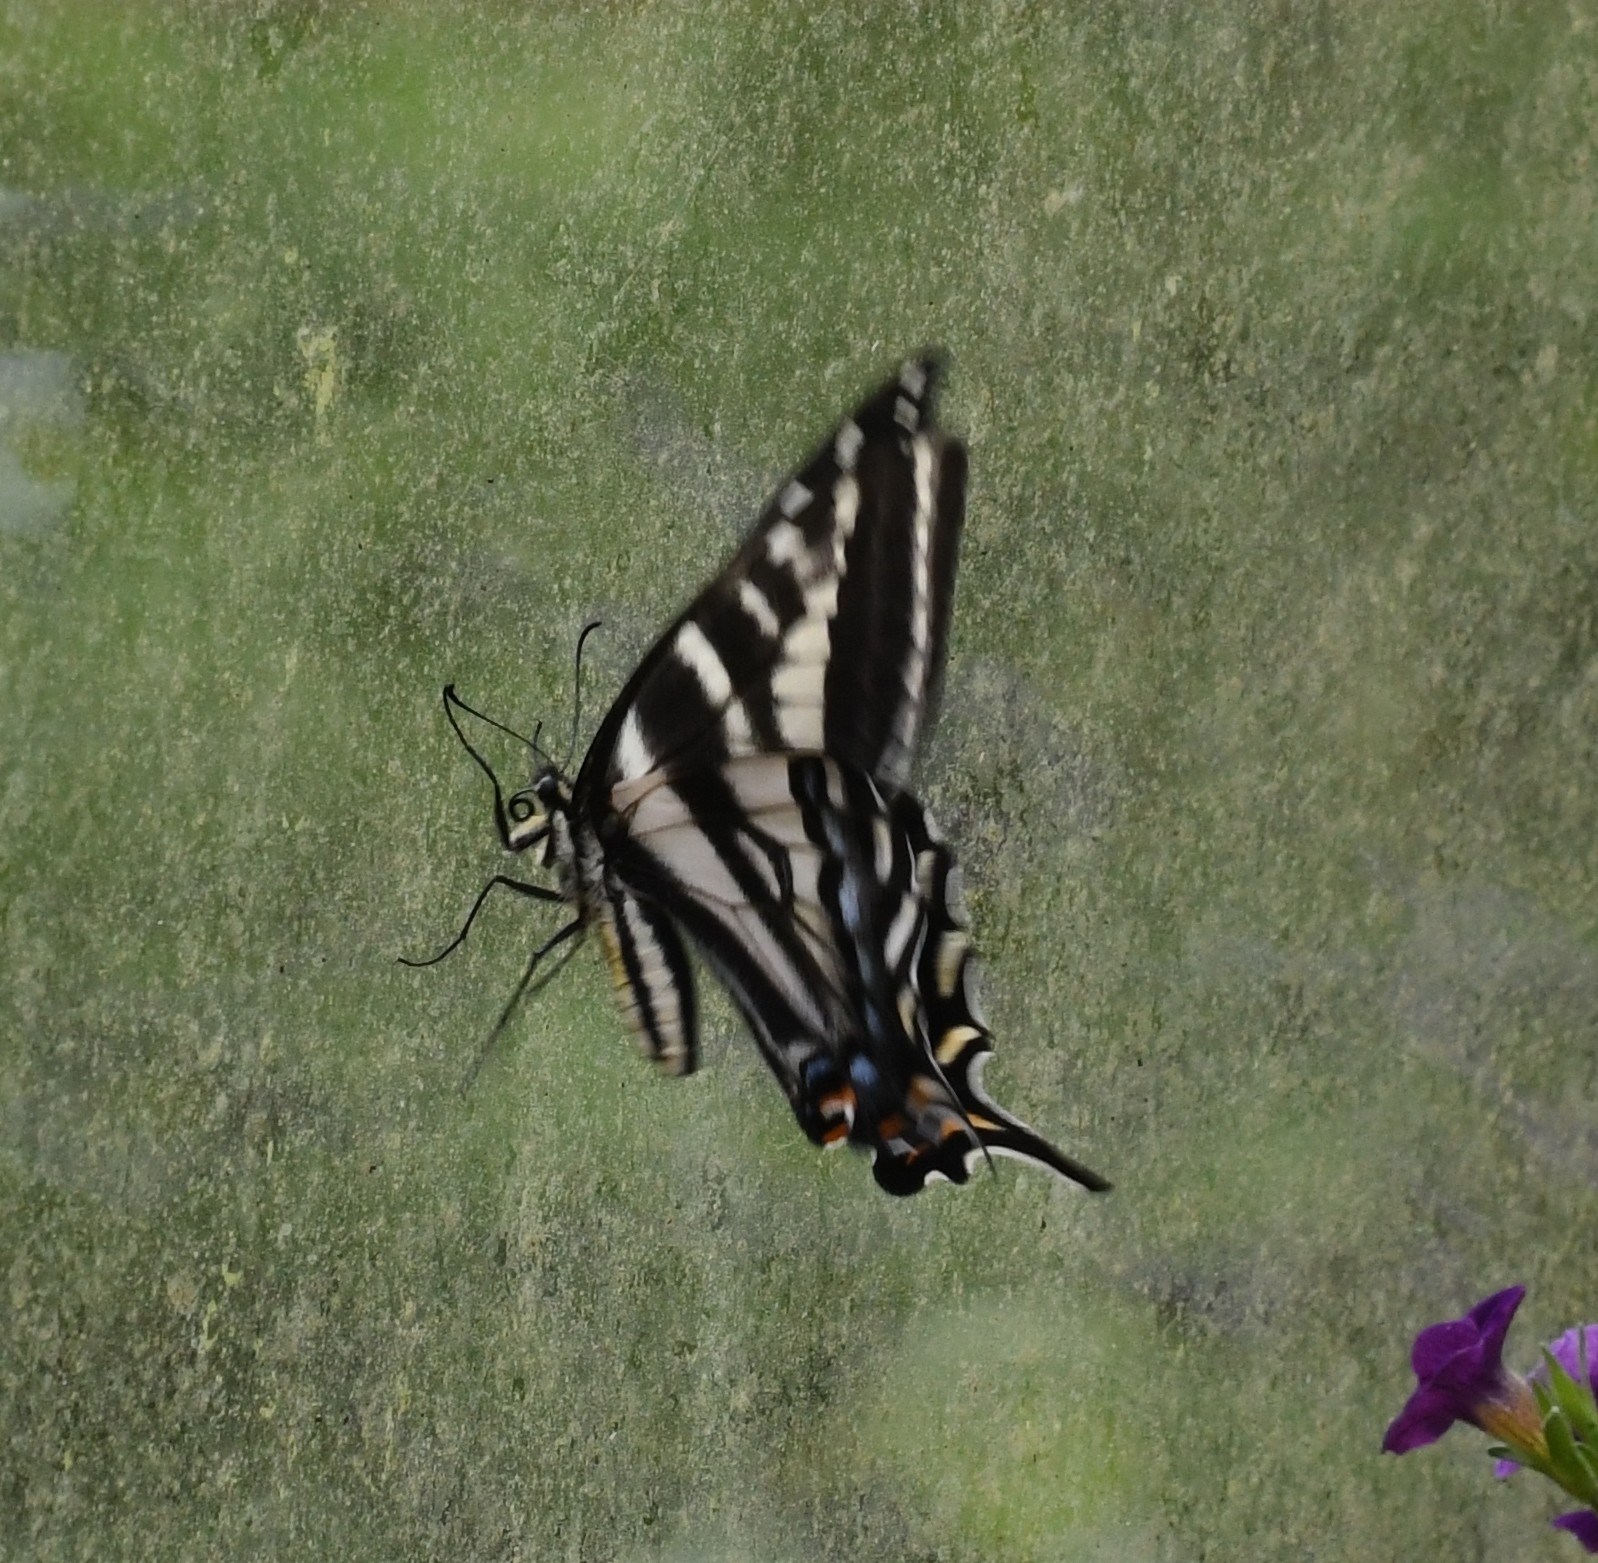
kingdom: Animalia
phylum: Arthropoda
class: Insecta
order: Lepidoptera
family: Papilionidae
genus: Papilio
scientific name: Papilio eurymedon
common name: Pale tiger swallowtail
